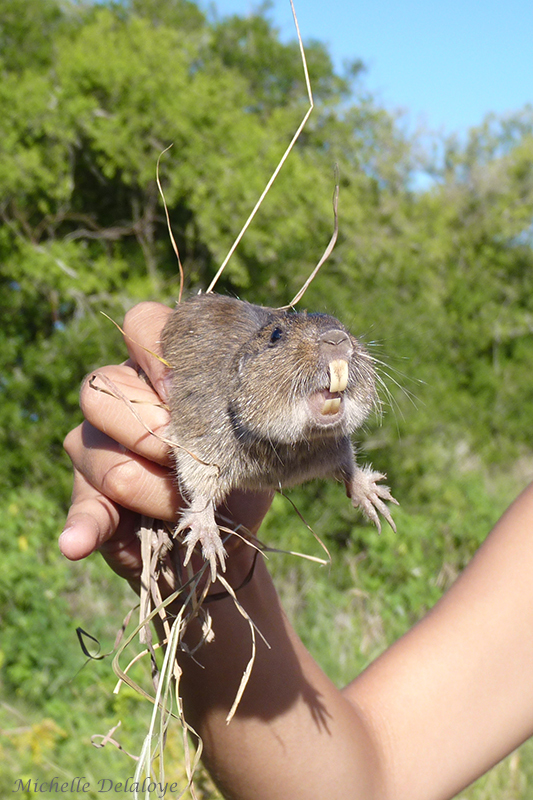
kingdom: Animalia
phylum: Chordata
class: Mammalia
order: Rodentia
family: Ctenomyidae
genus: Ctenomys
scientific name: Ctenomys talarum
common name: Talas tuco-tuco
